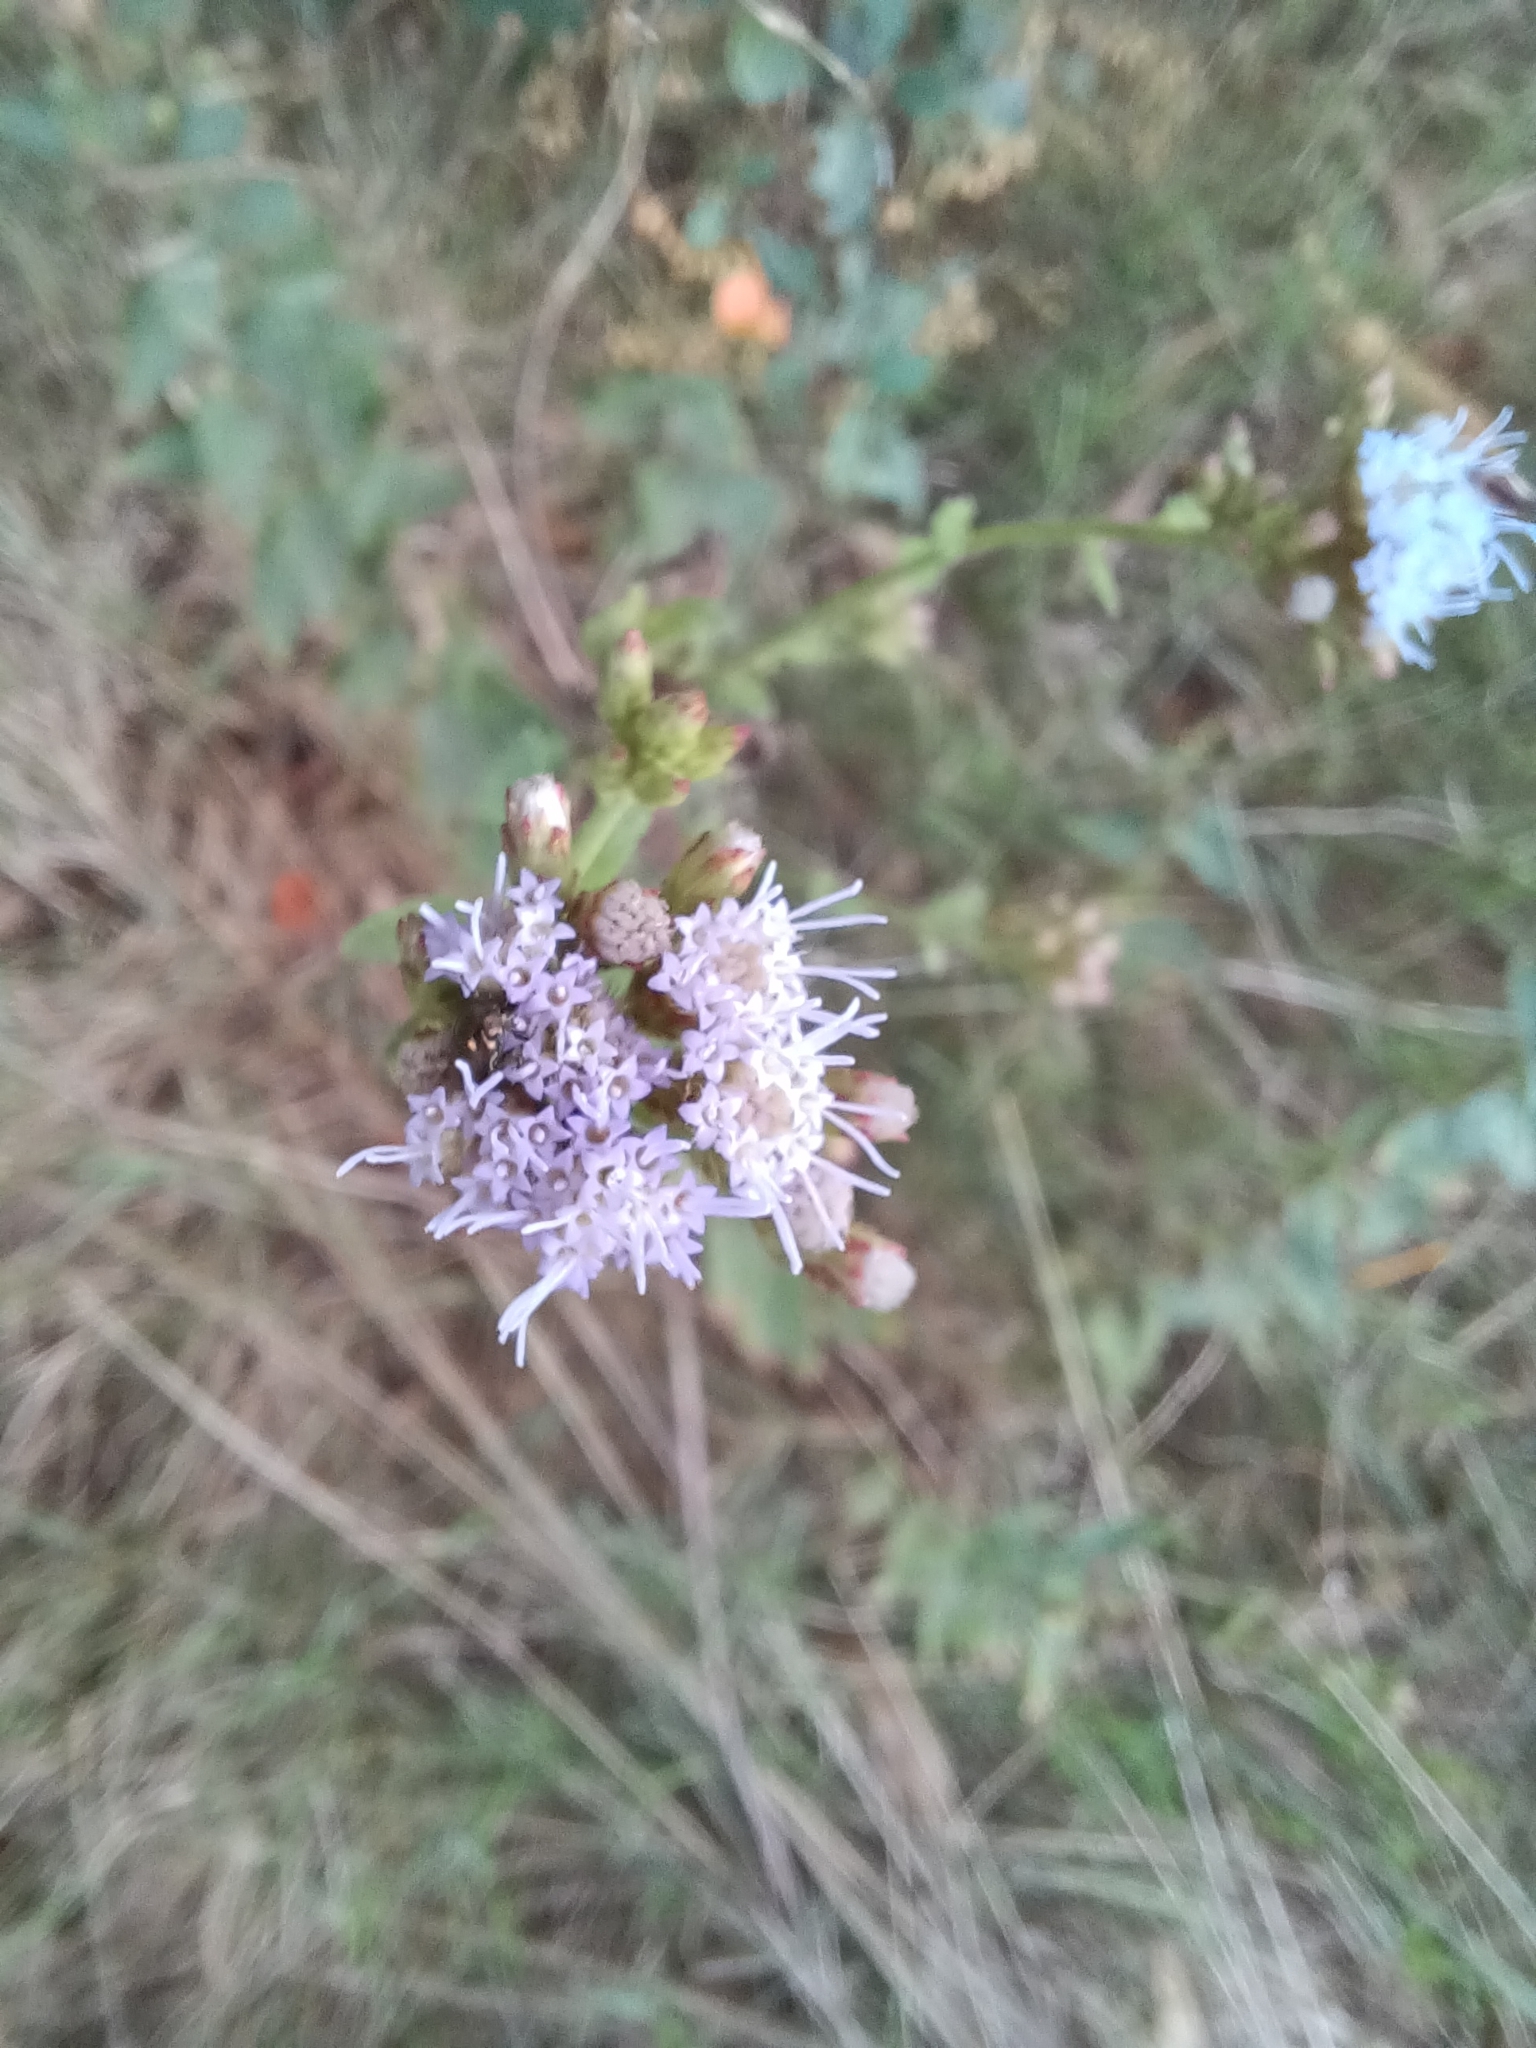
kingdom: Plantae
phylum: Tracheophyta
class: Magnoliopsida
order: Asterales
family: Asteraceae
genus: Chromolaena
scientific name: Chromolaena hirsuta
